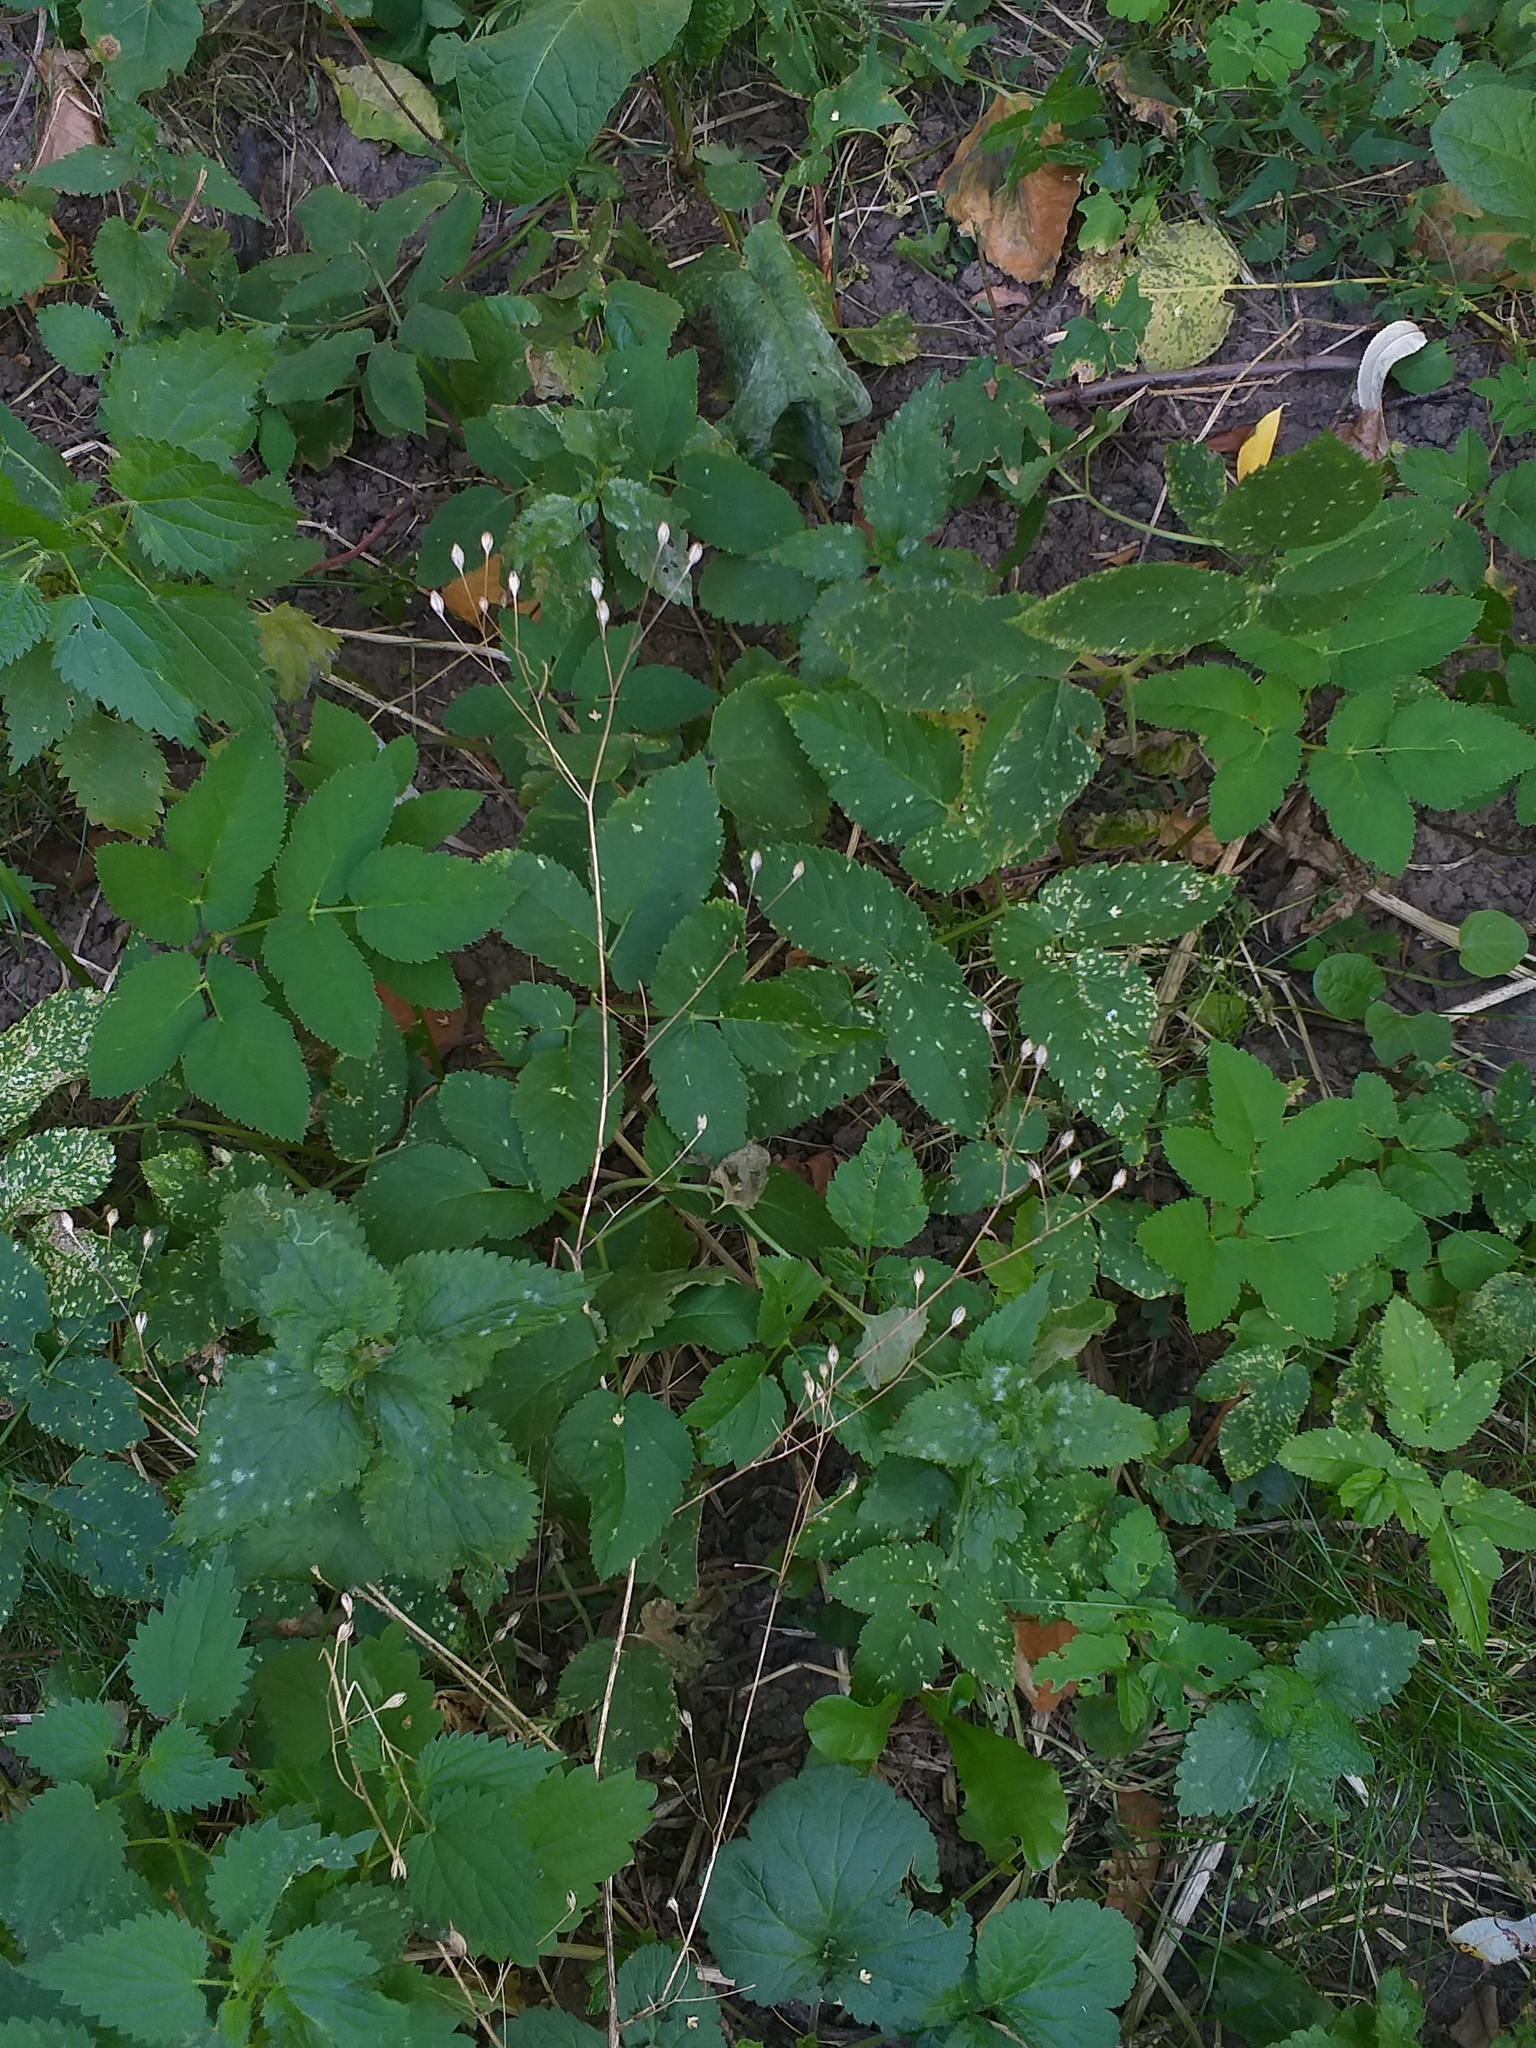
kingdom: Plantae
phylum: Tracheophyta
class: Magnoliopsida
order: Asterales
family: Asteraceae
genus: Lapsana
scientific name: Lapsana communis
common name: Nipplewort
